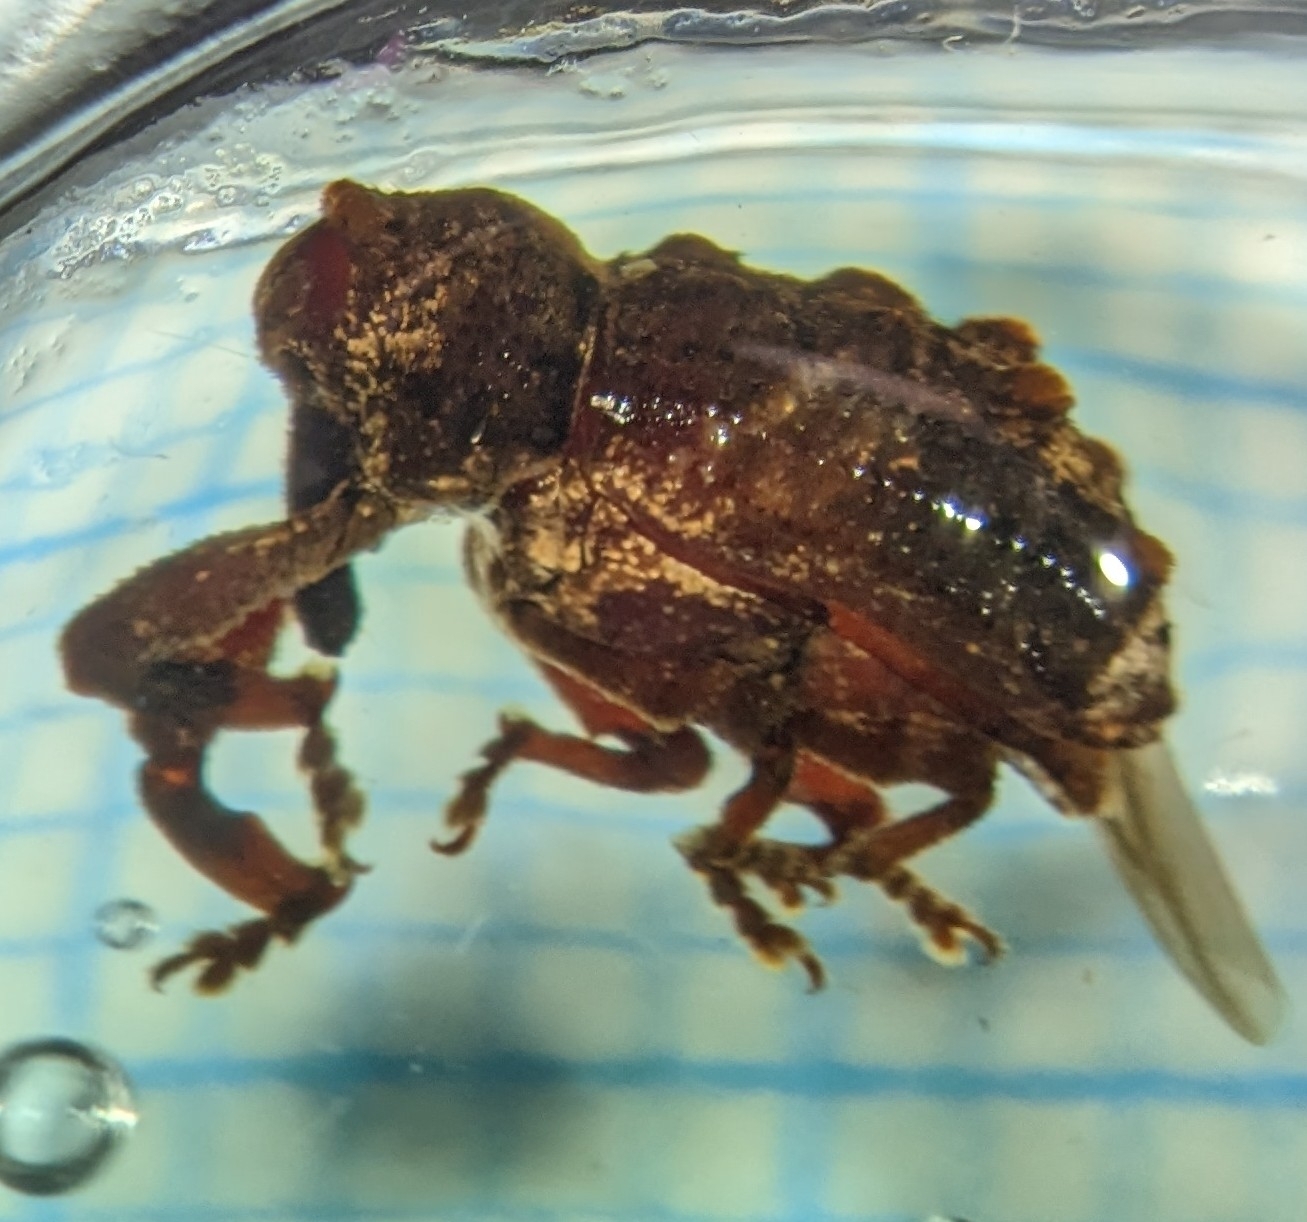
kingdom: Animalia
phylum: Arthropoda
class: Insecta
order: Coleoptera
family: Curculionidae
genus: Orthorhinus
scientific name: Orthorhinus klugii
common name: Vine weevil
